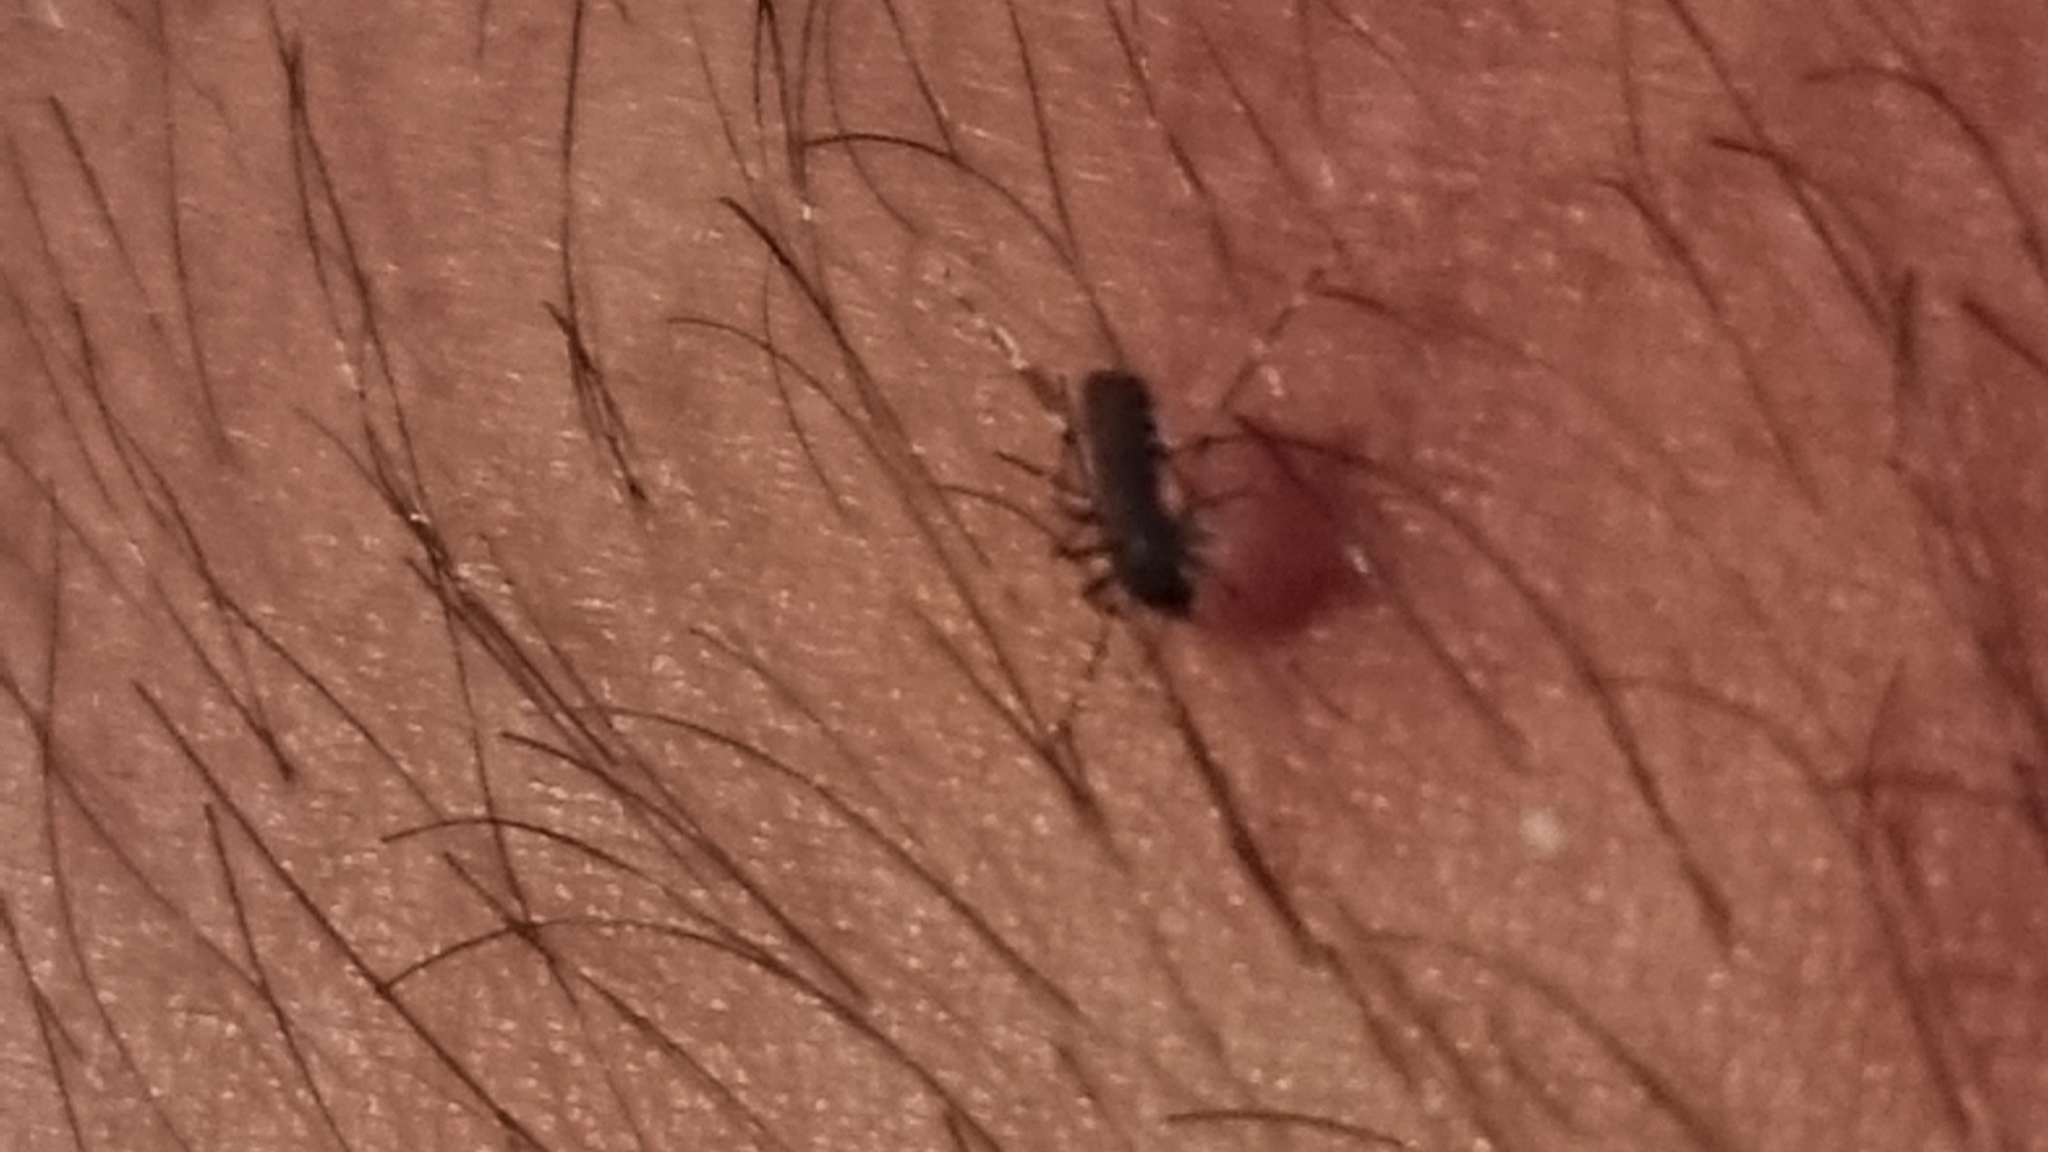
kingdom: Animalia
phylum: Arthropoda
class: Insecta
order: Diptera
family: Culicidae
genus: Aedes
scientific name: Aedes albopictus
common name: Tiger mosquito
